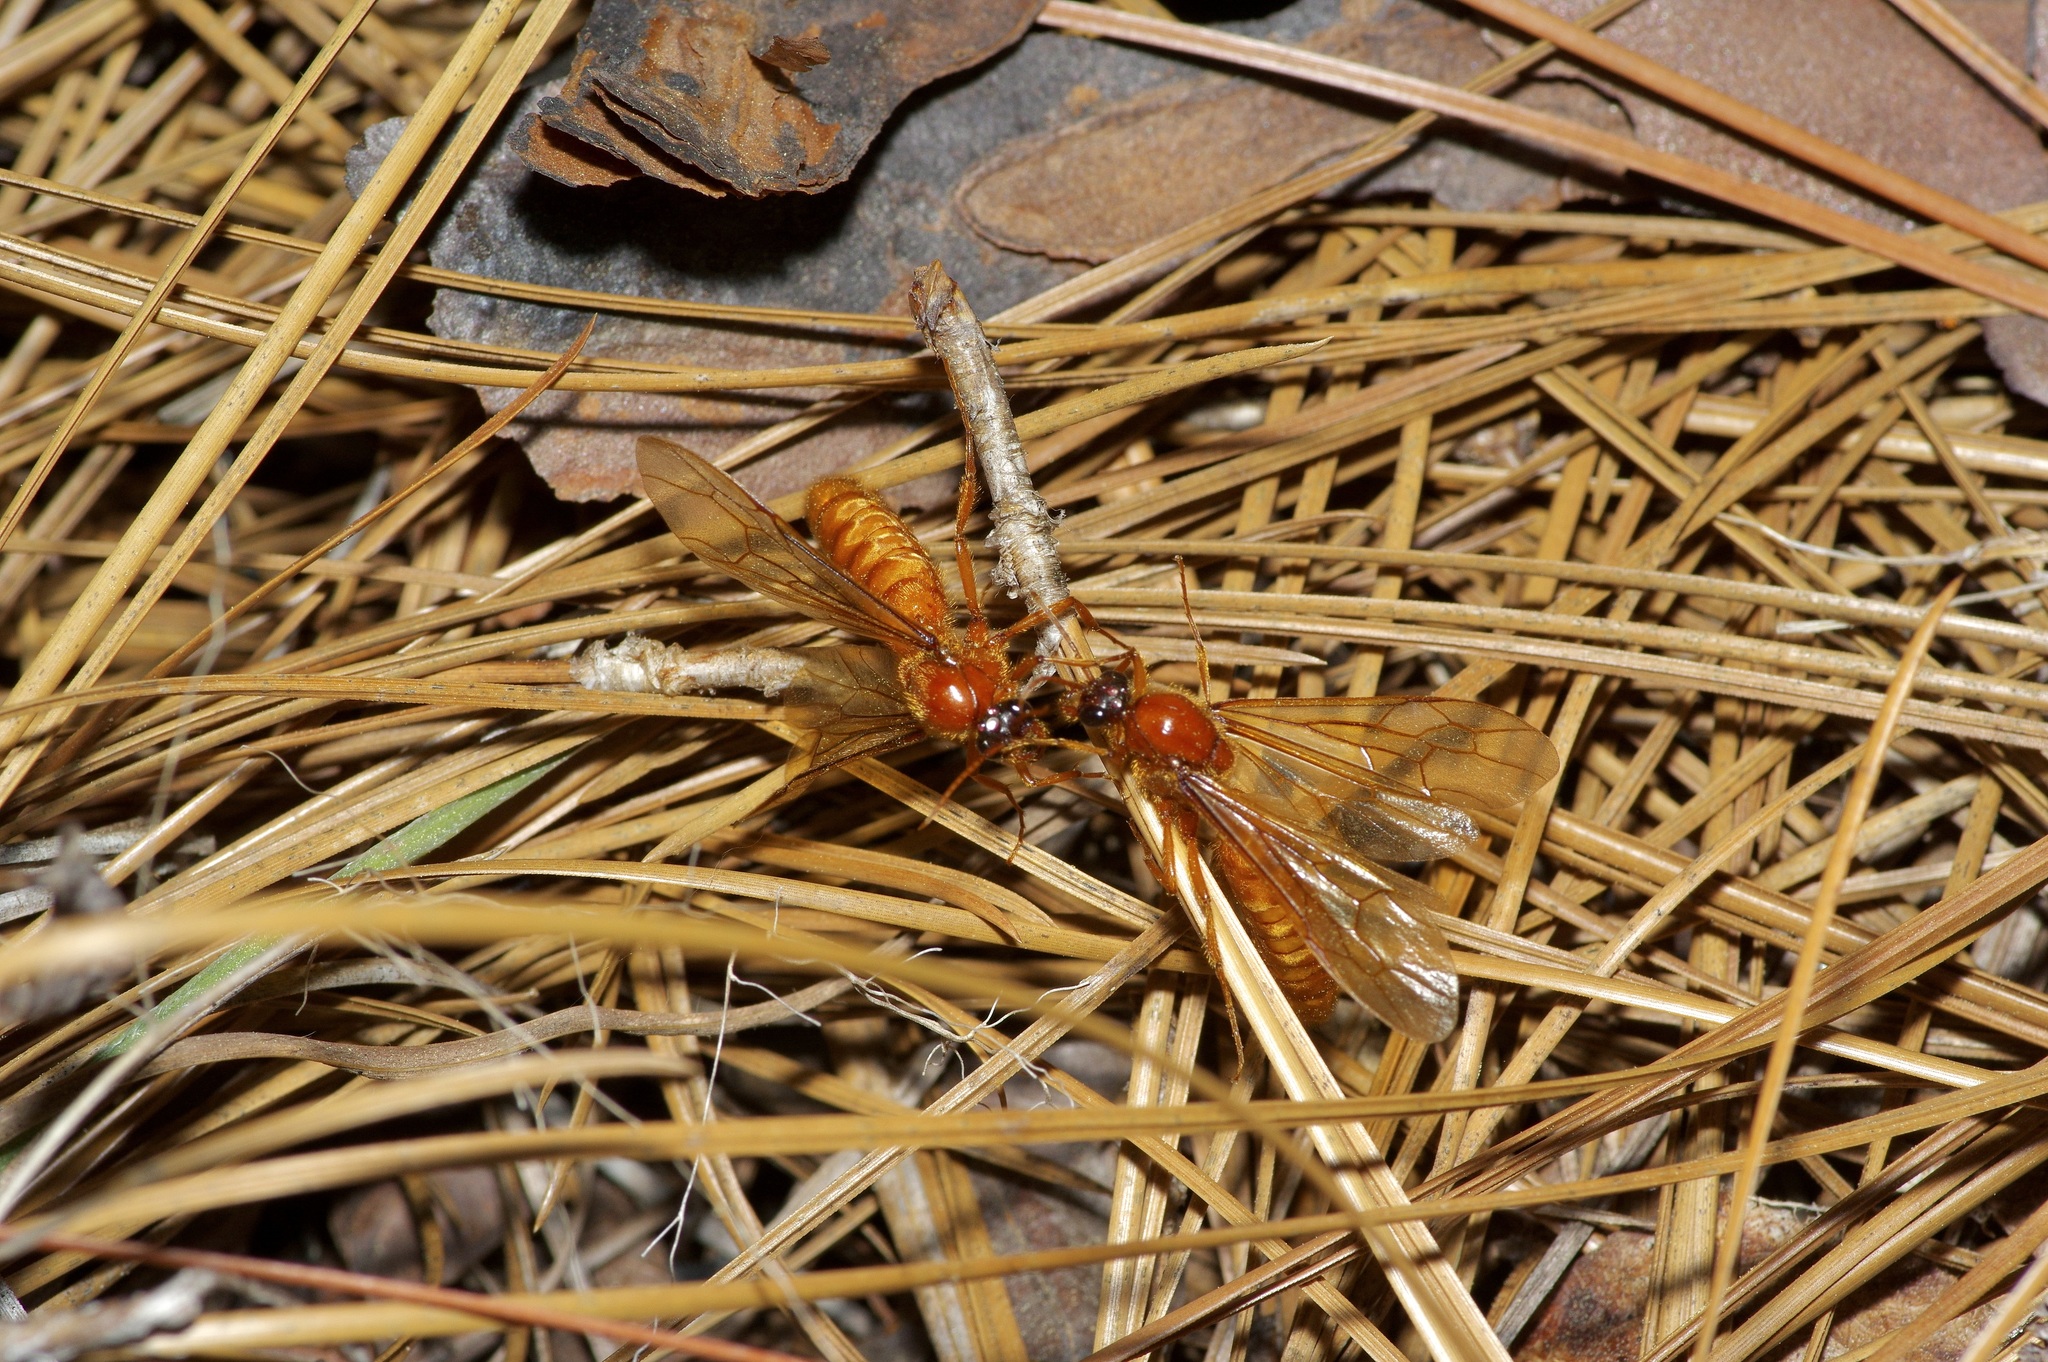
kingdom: Animalia
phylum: Arthropoda
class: Insecta
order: Hymenoptera
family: Formicidae
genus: Labidus
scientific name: Labidus coecus
